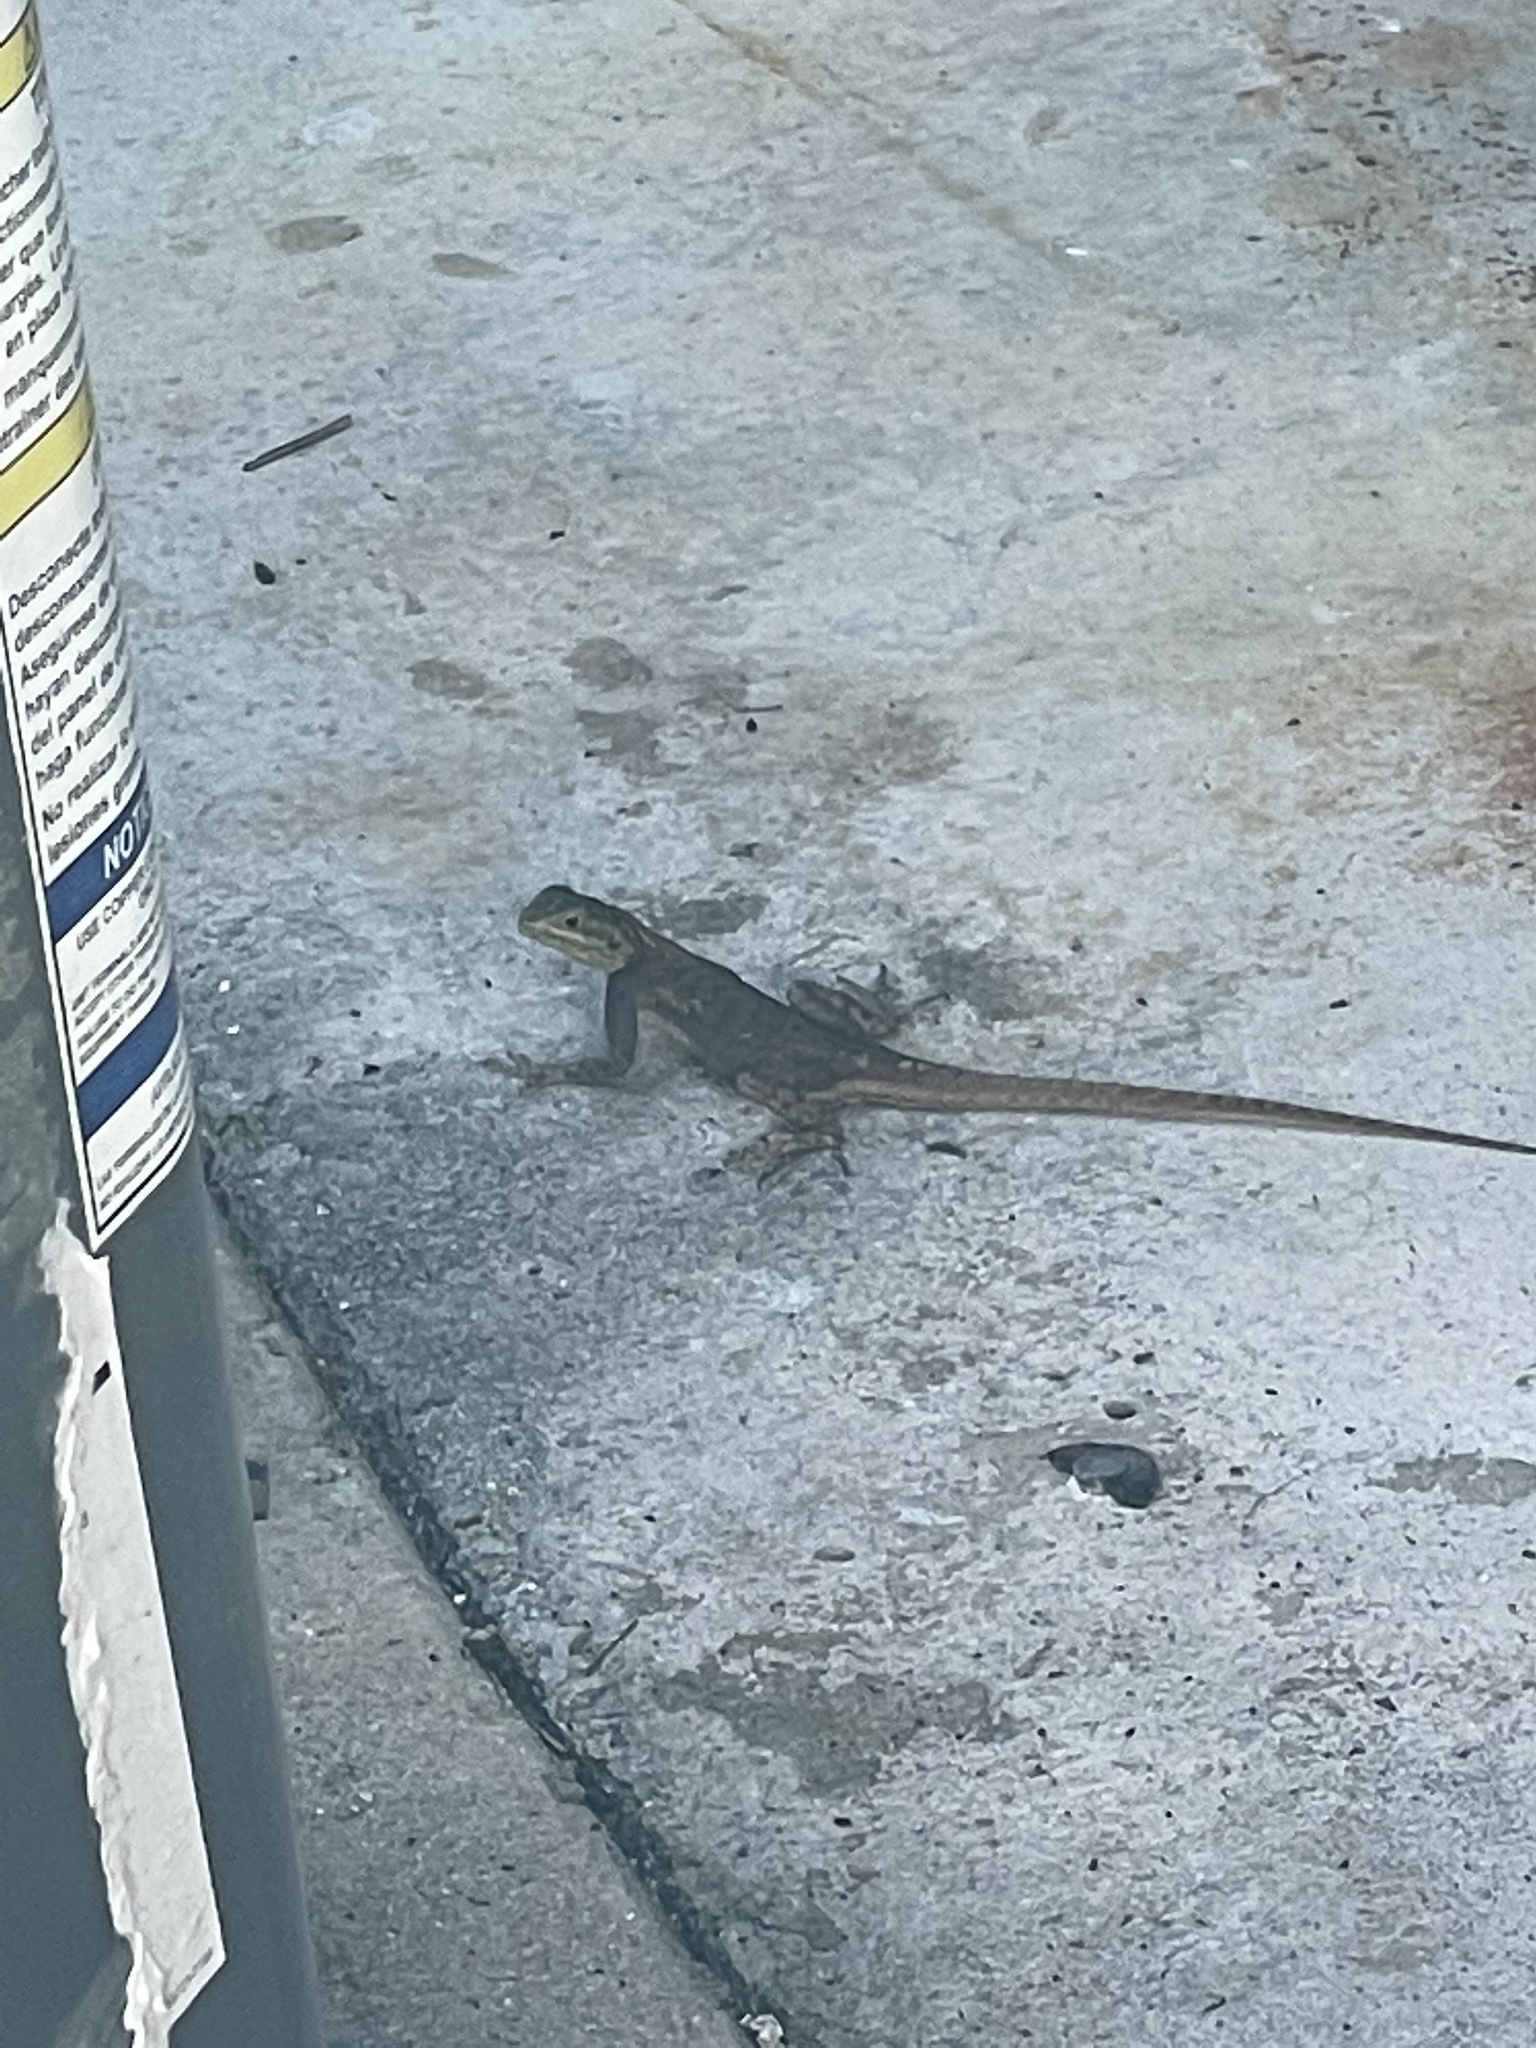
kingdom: Animalia
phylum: Chordata
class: Squamata
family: Agamidae
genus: Agama
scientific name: Agama picticauda
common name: Red-headed agama
